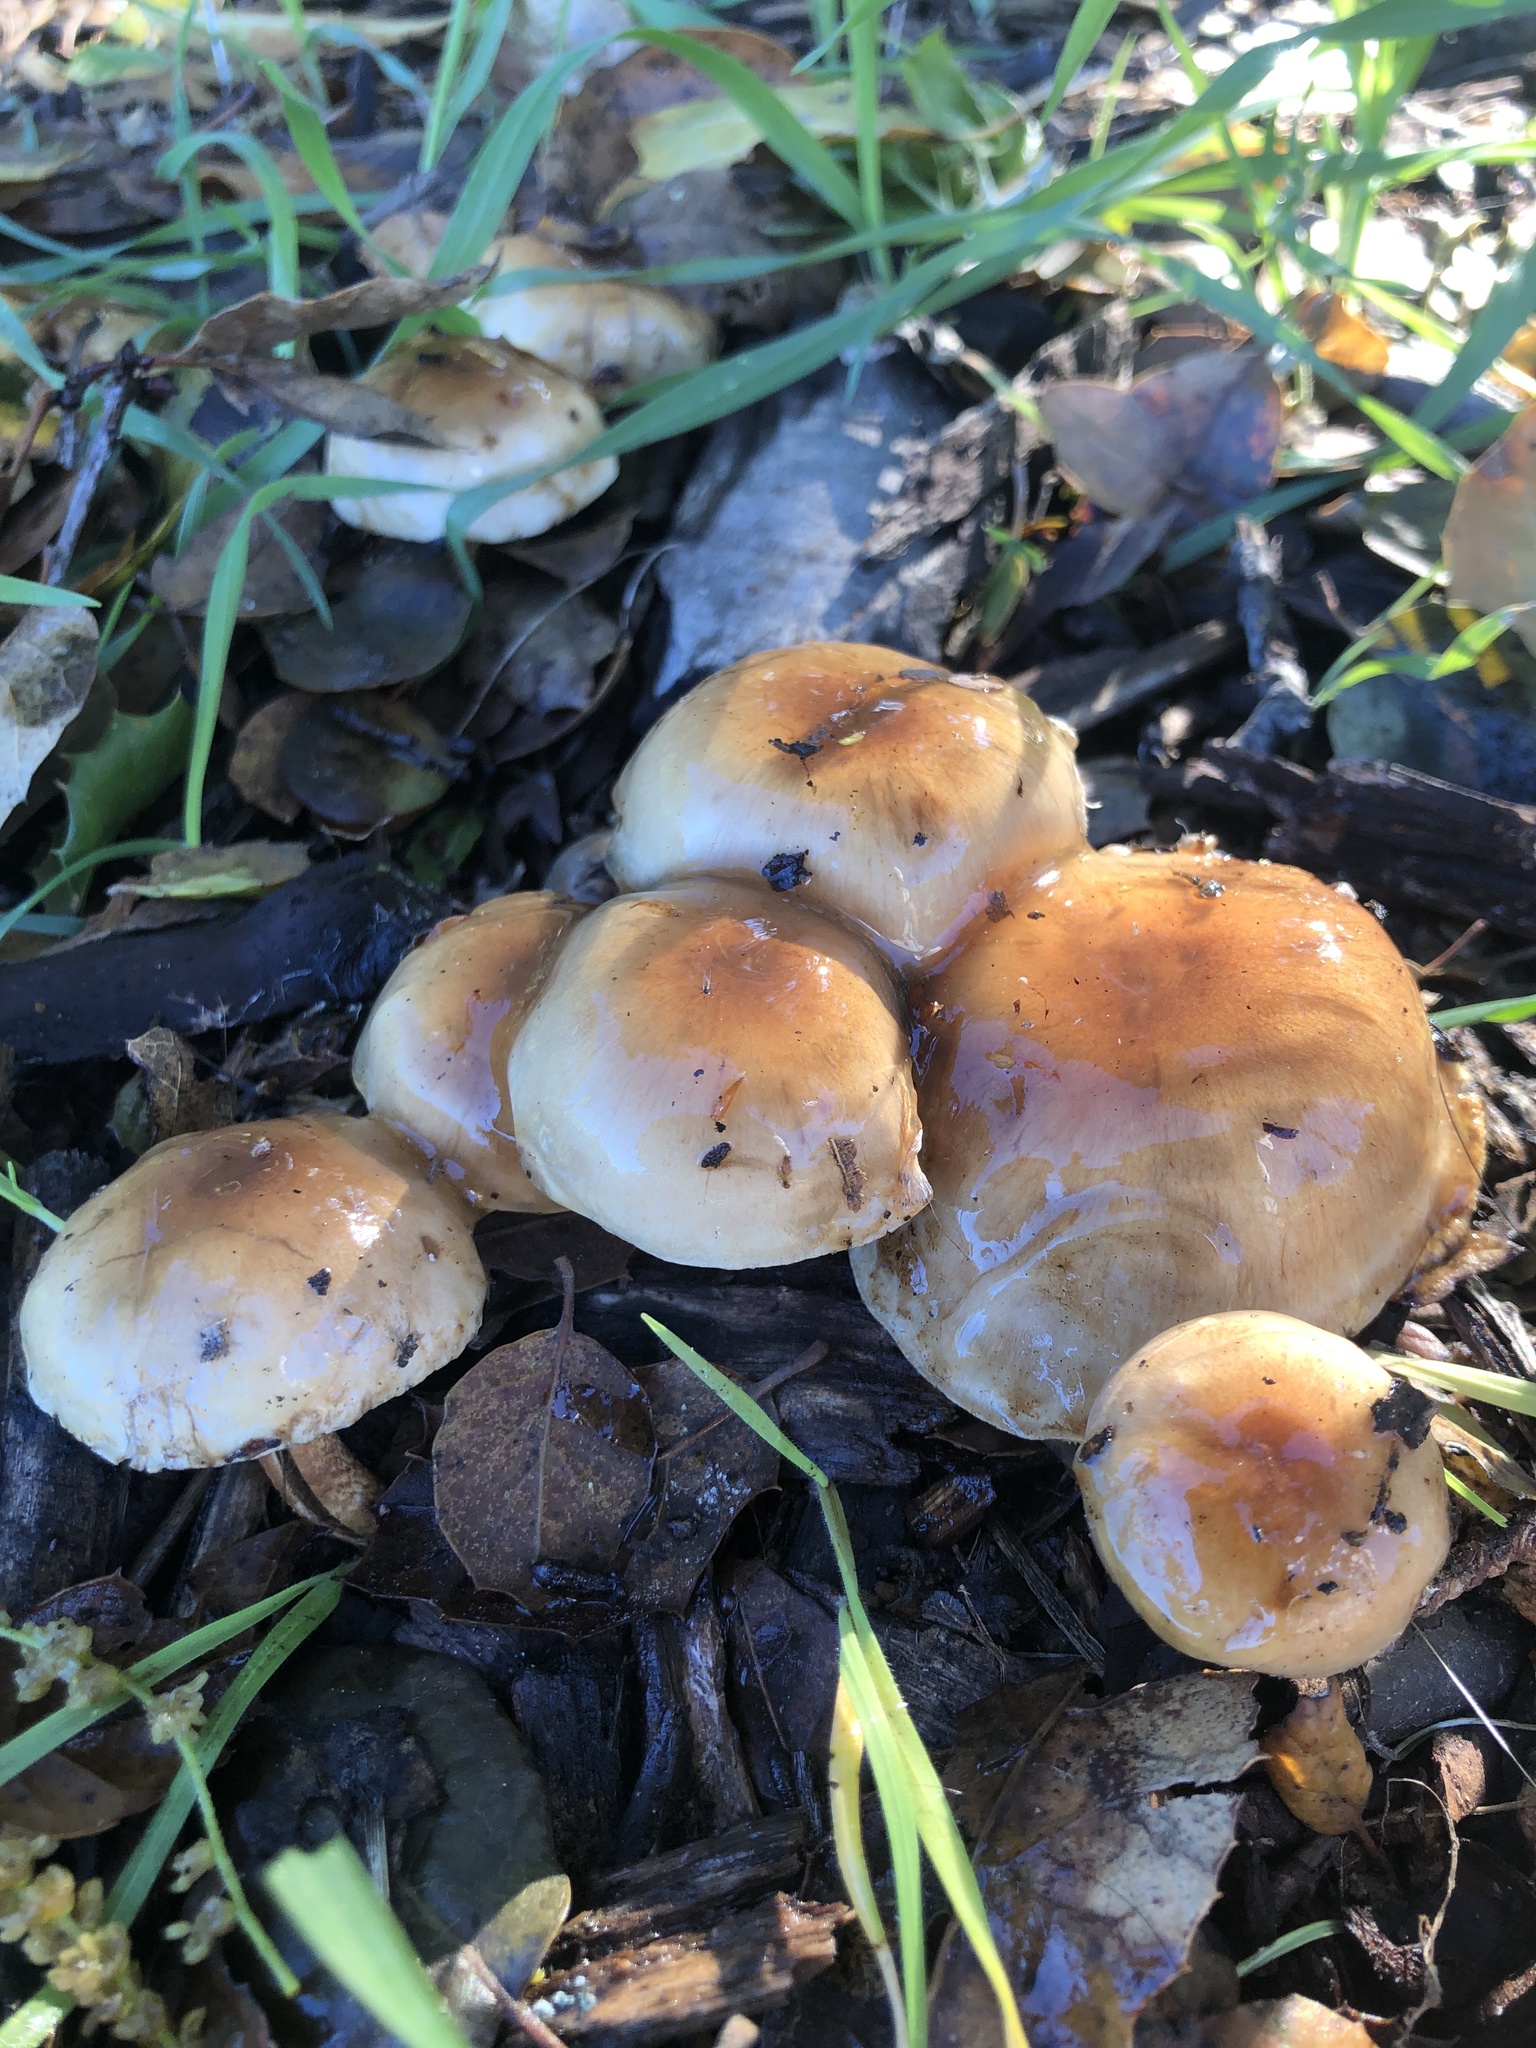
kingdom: Fungi
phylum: Basidiomycota
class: Agaricomycetes
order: Agaricales
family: Strophariaceae
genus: Pholiota
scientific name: Pholiota spumosa
